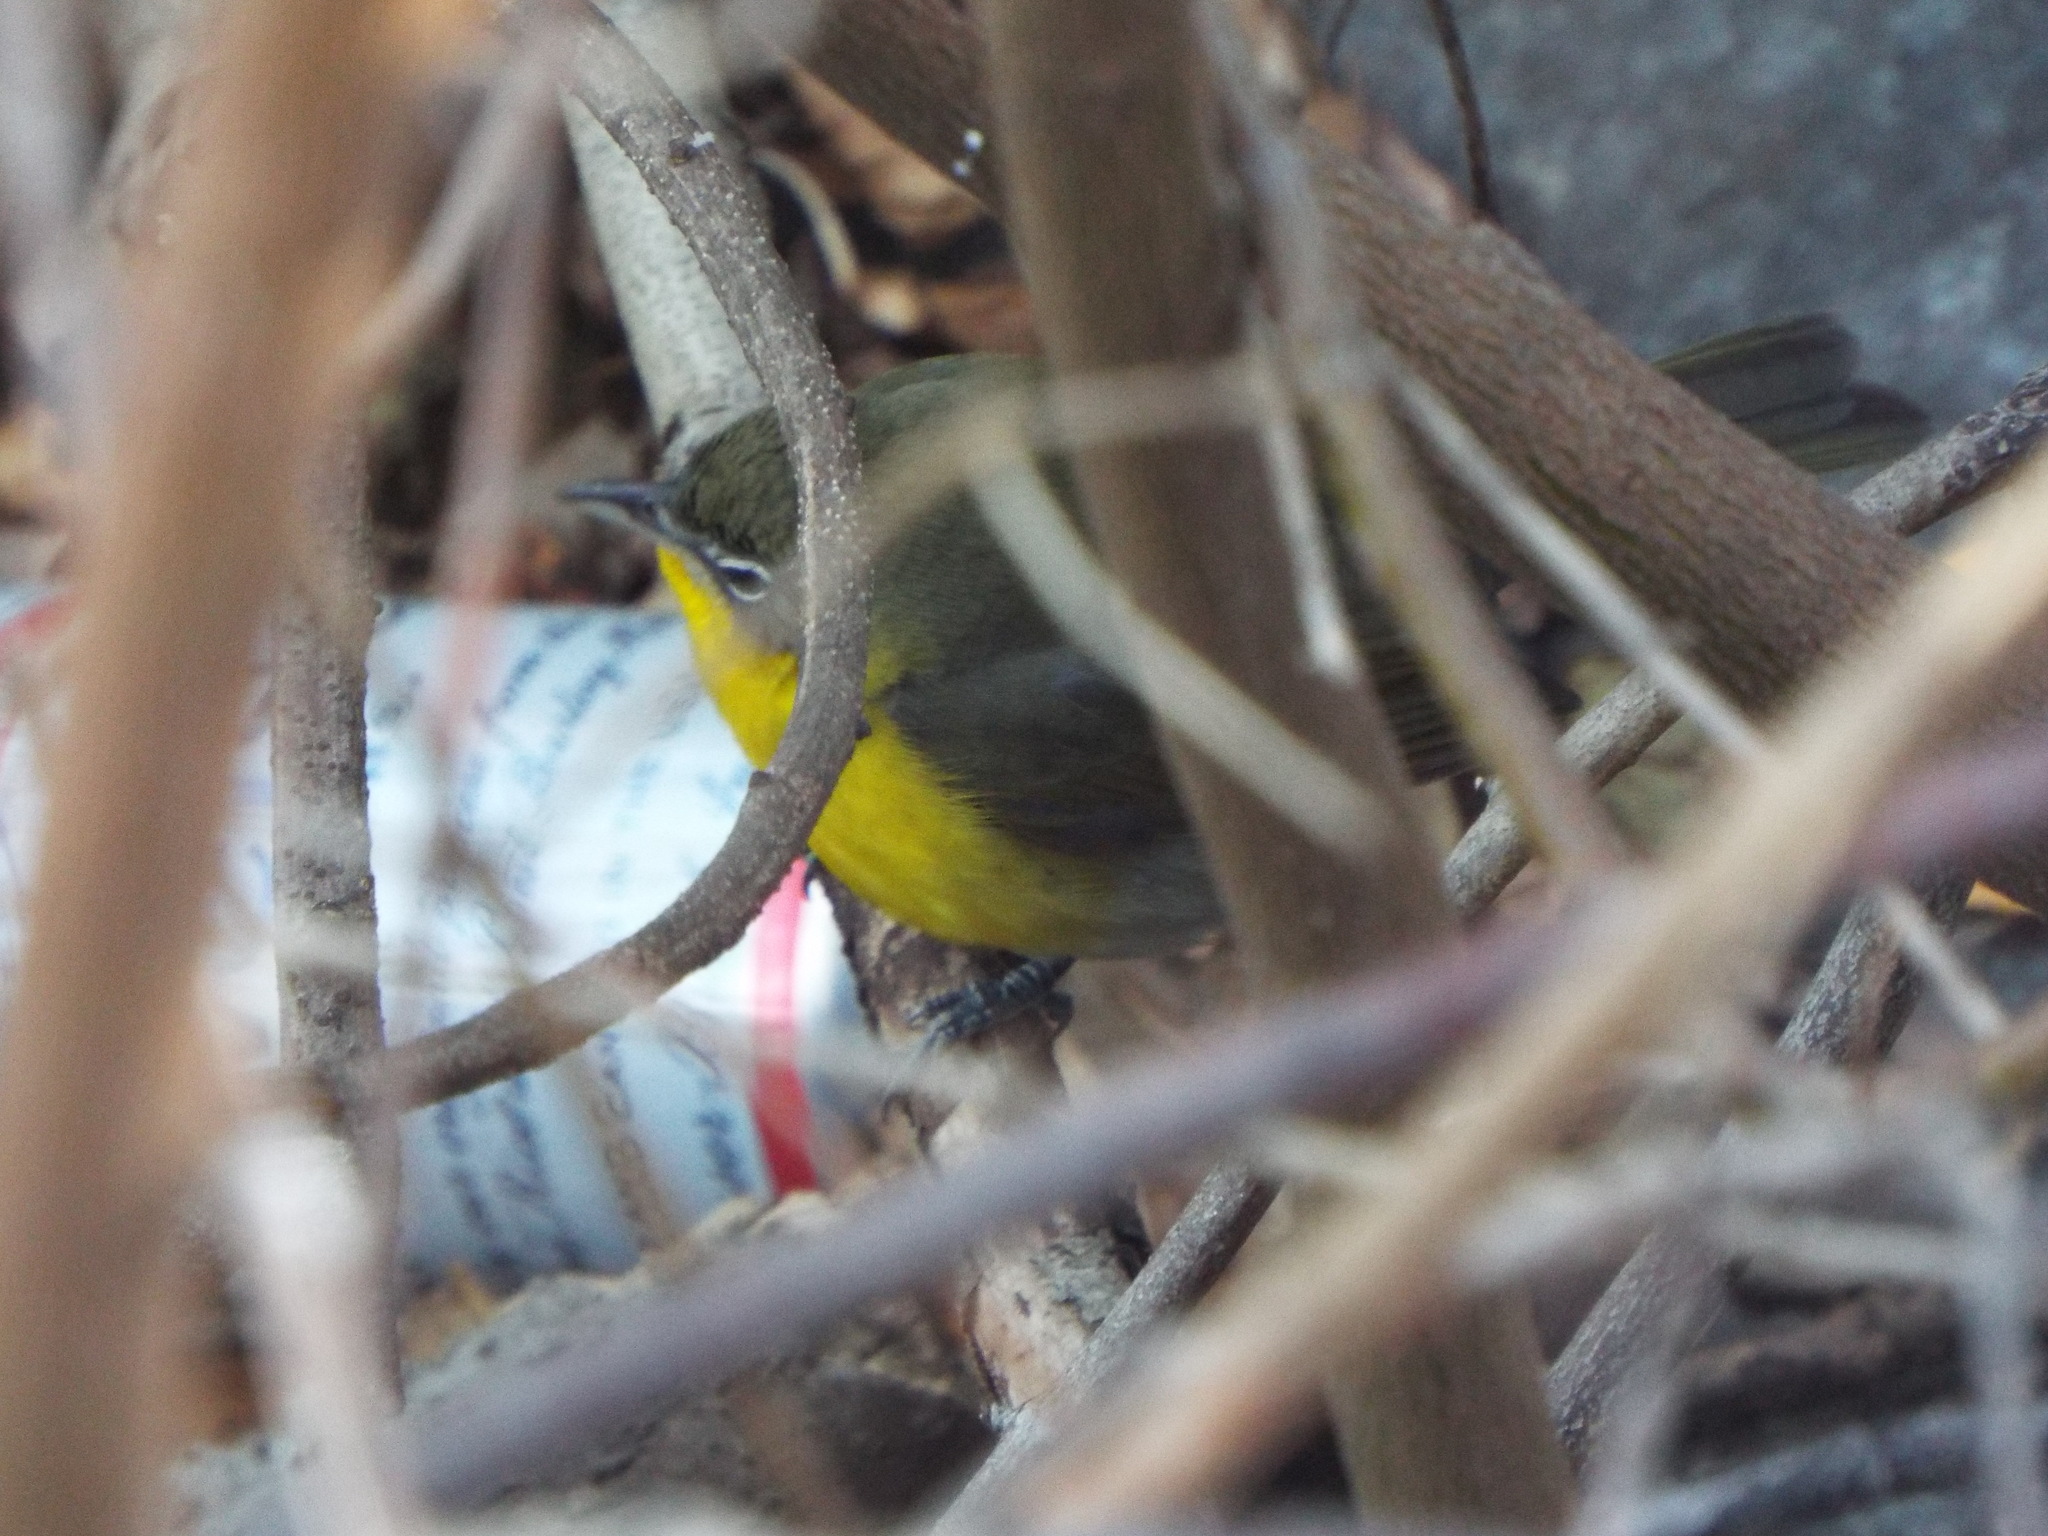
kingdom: Animalia
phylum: Chordata
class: Aves
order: Passeriformes
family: Parulidae
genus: Icteria
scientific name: Icteria virens
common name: Yellow-breasted chat
